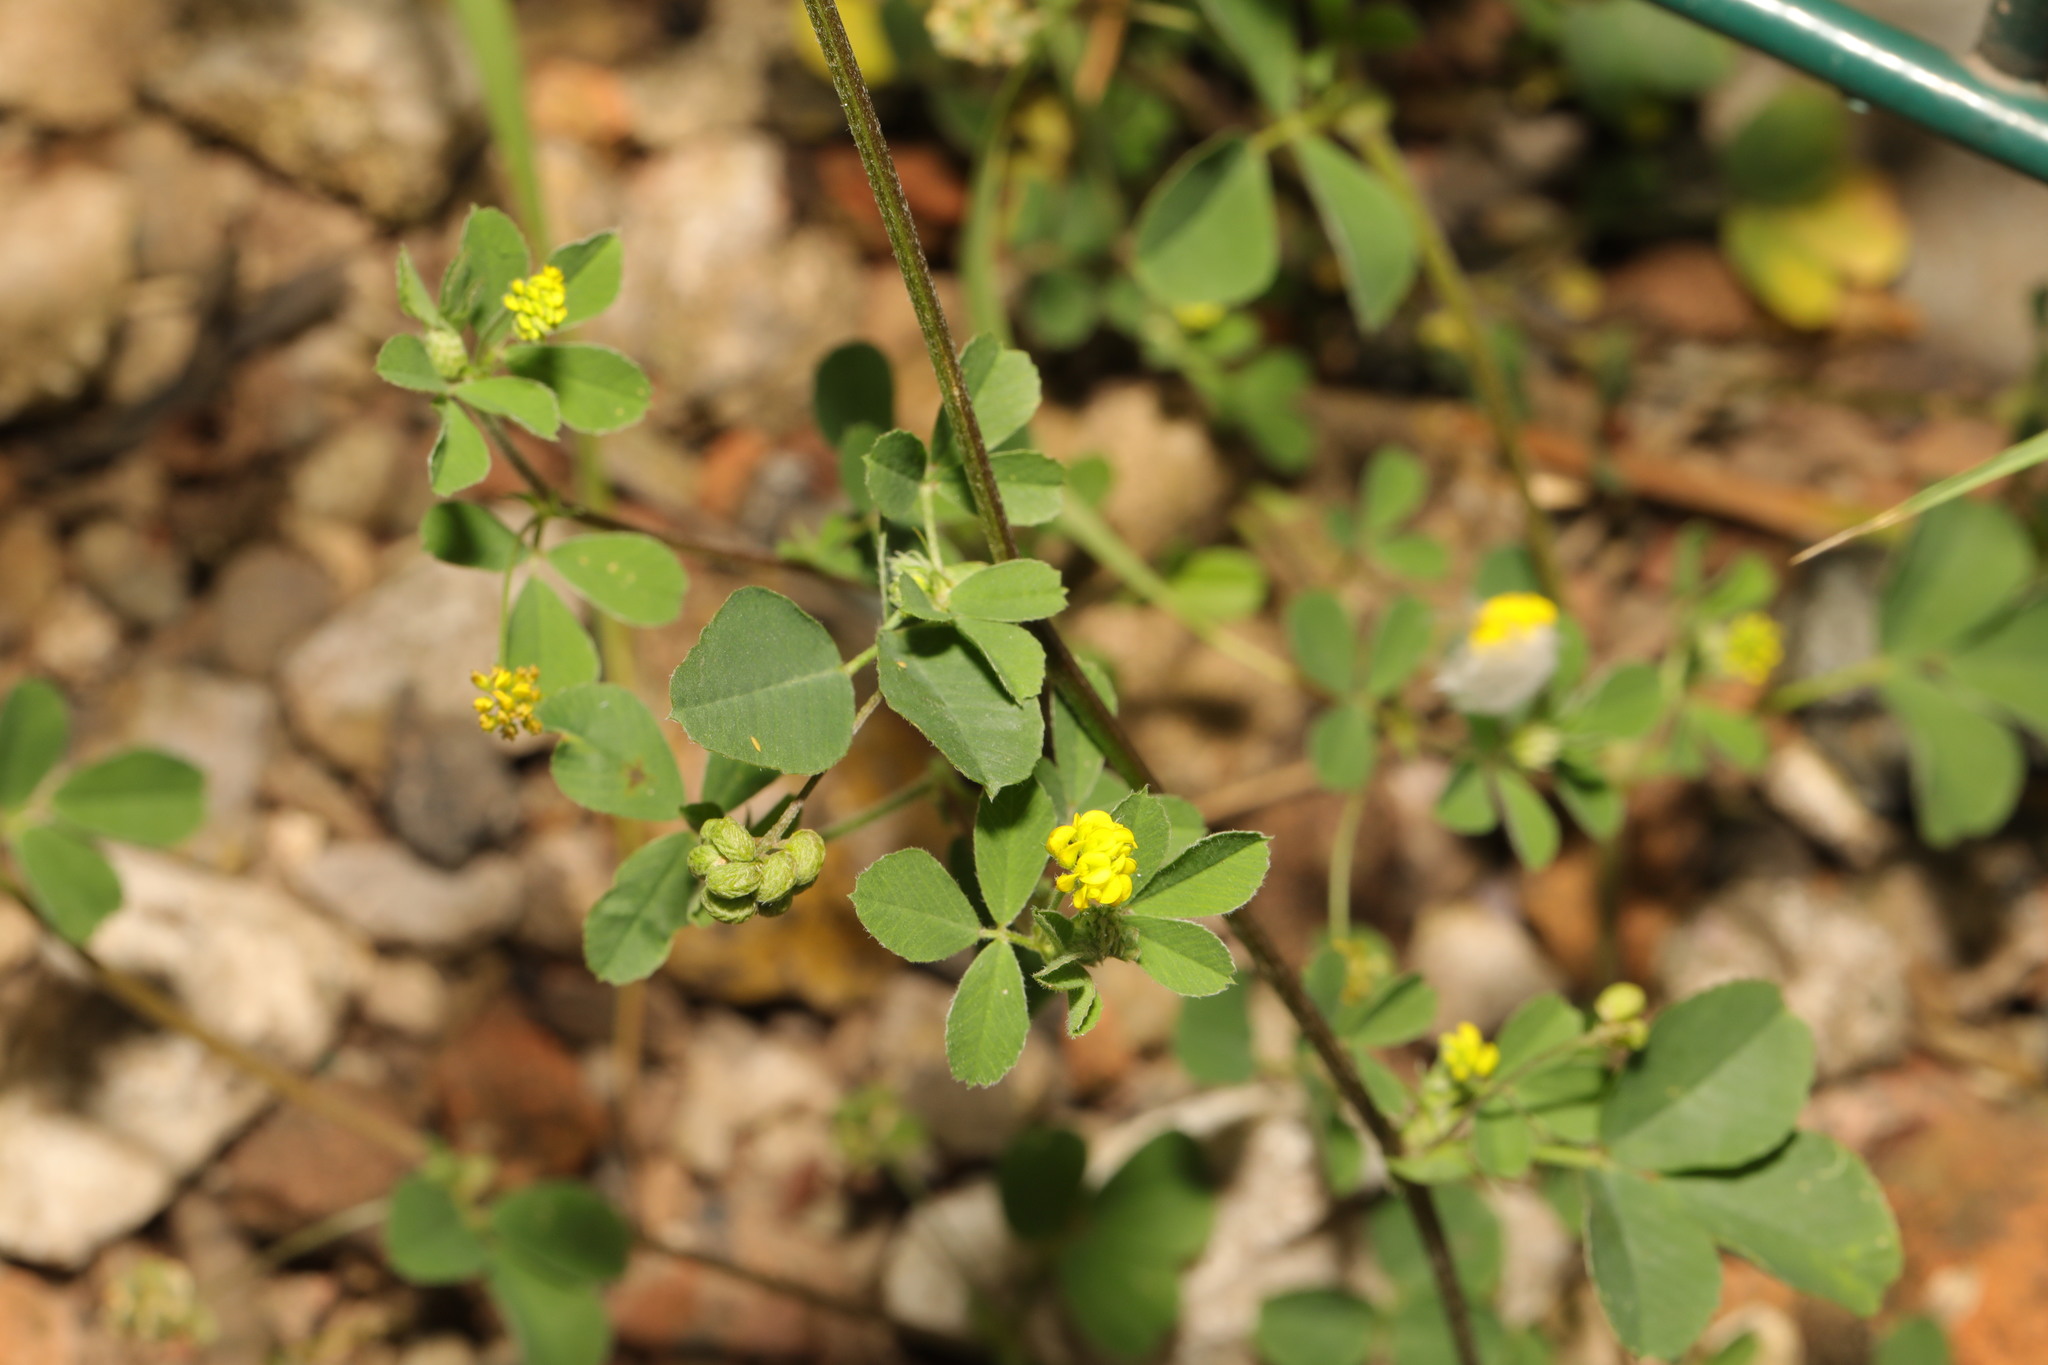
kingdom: Plantae
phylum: Tracheophyta
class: Magnoliopsida
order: Fabales
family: Fabaceae
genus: Medicago
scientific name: Medicago lupulina
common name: Black medick
